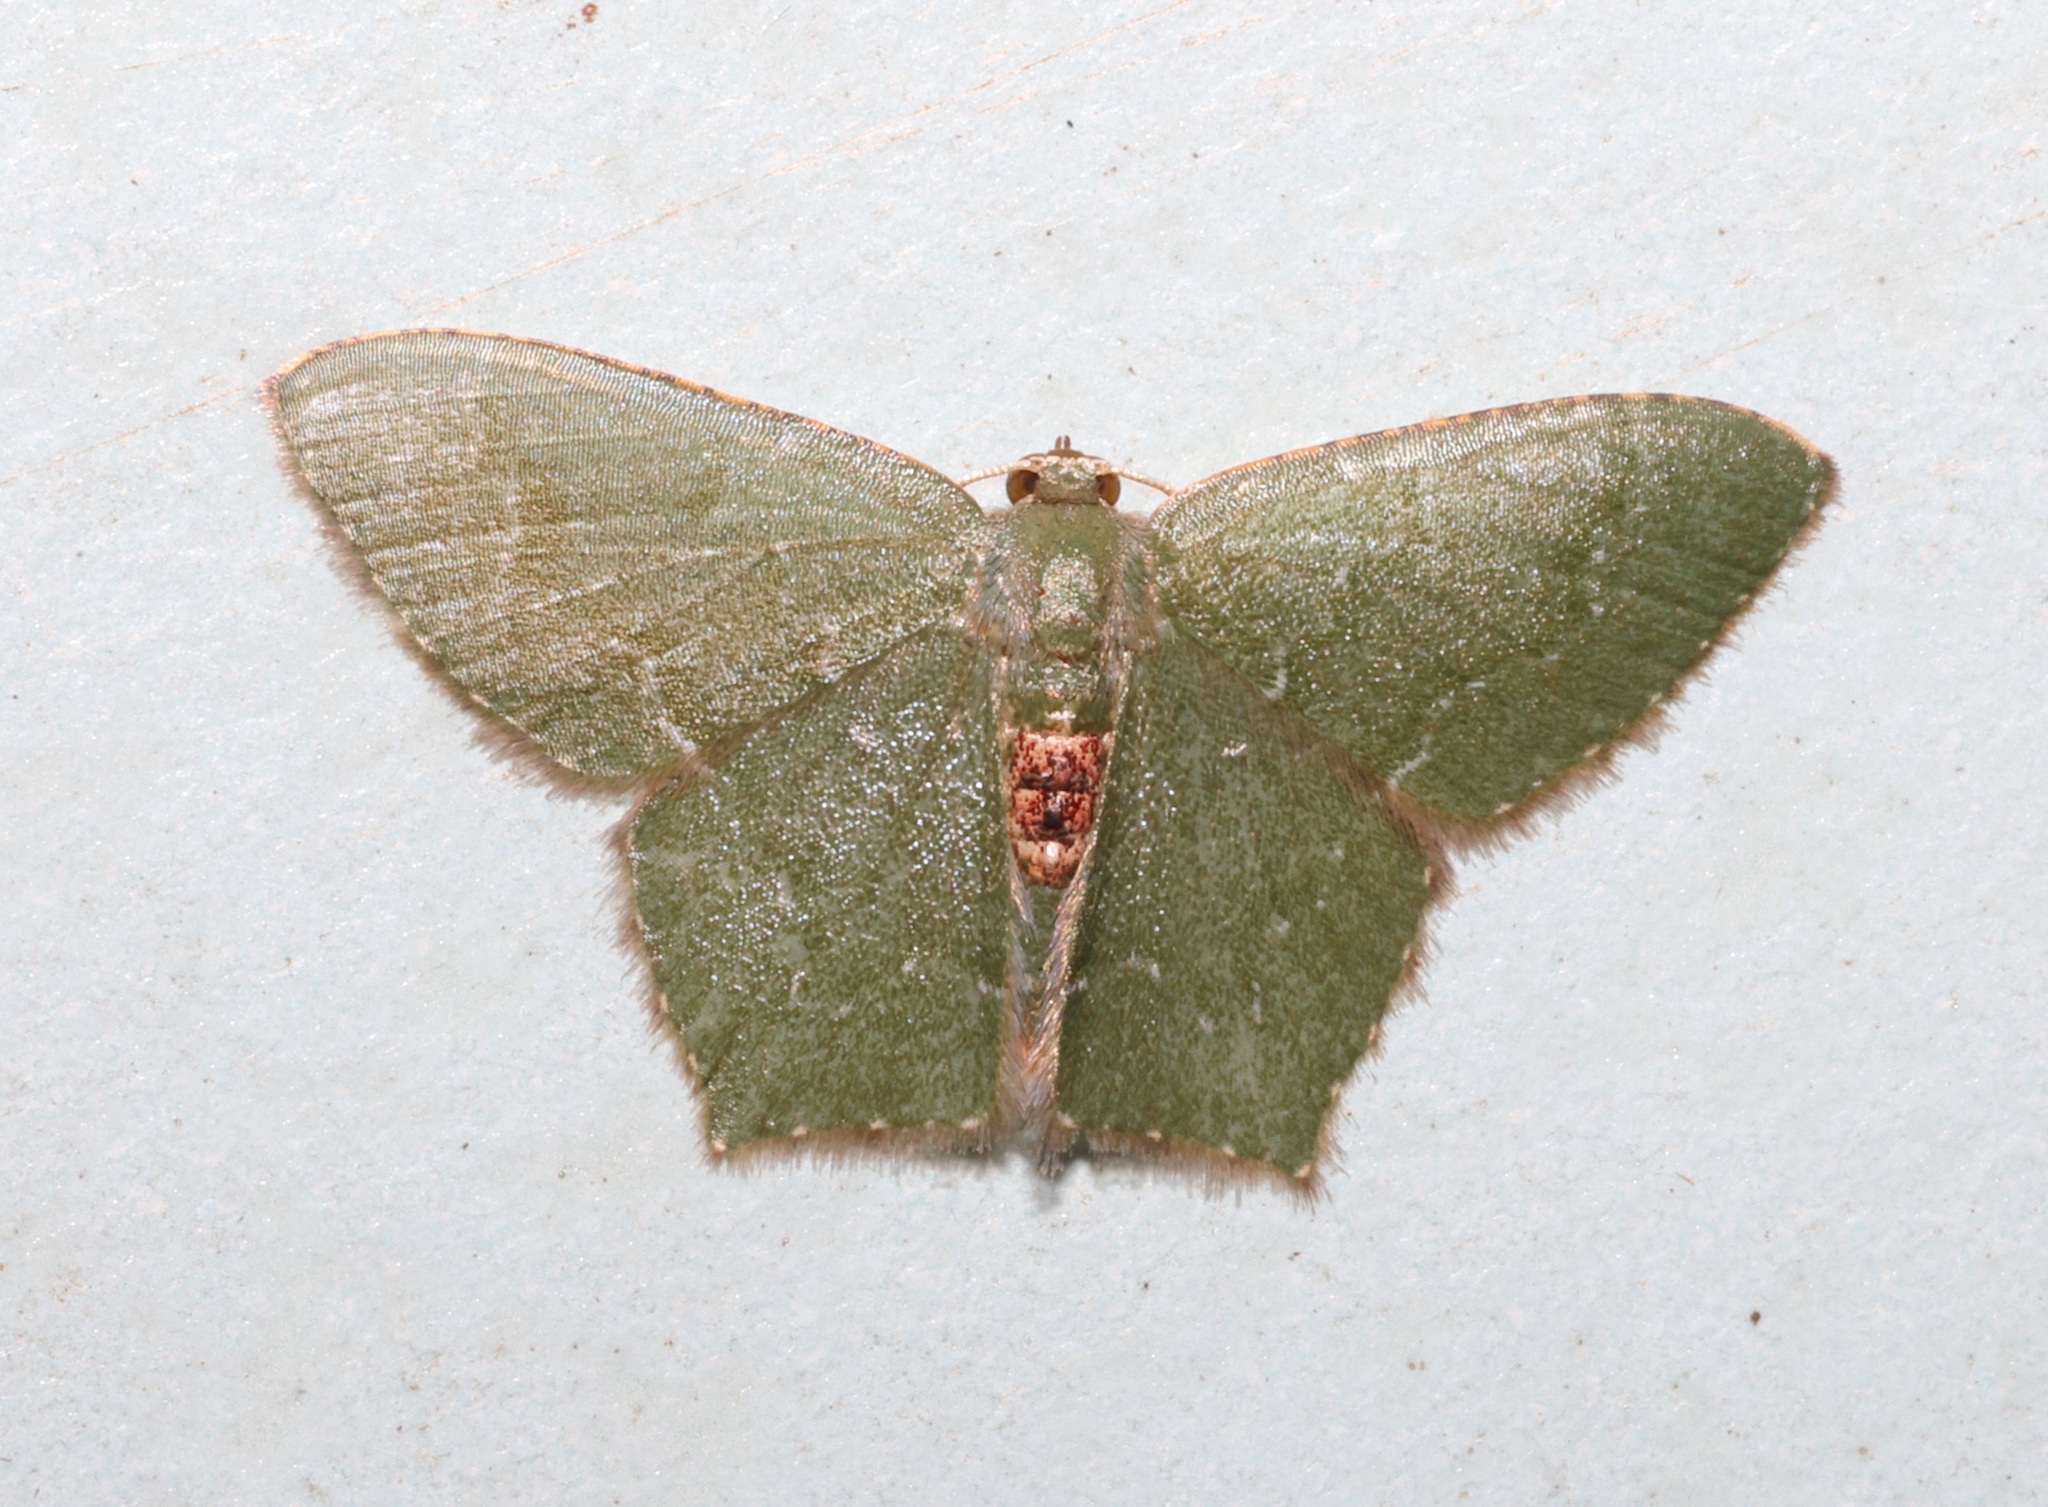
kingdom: Animalia
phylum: Arthropoda
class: Insecta
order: Lepidoptera
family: Geometridae
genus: Hemithea
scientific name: Hemithea marina
